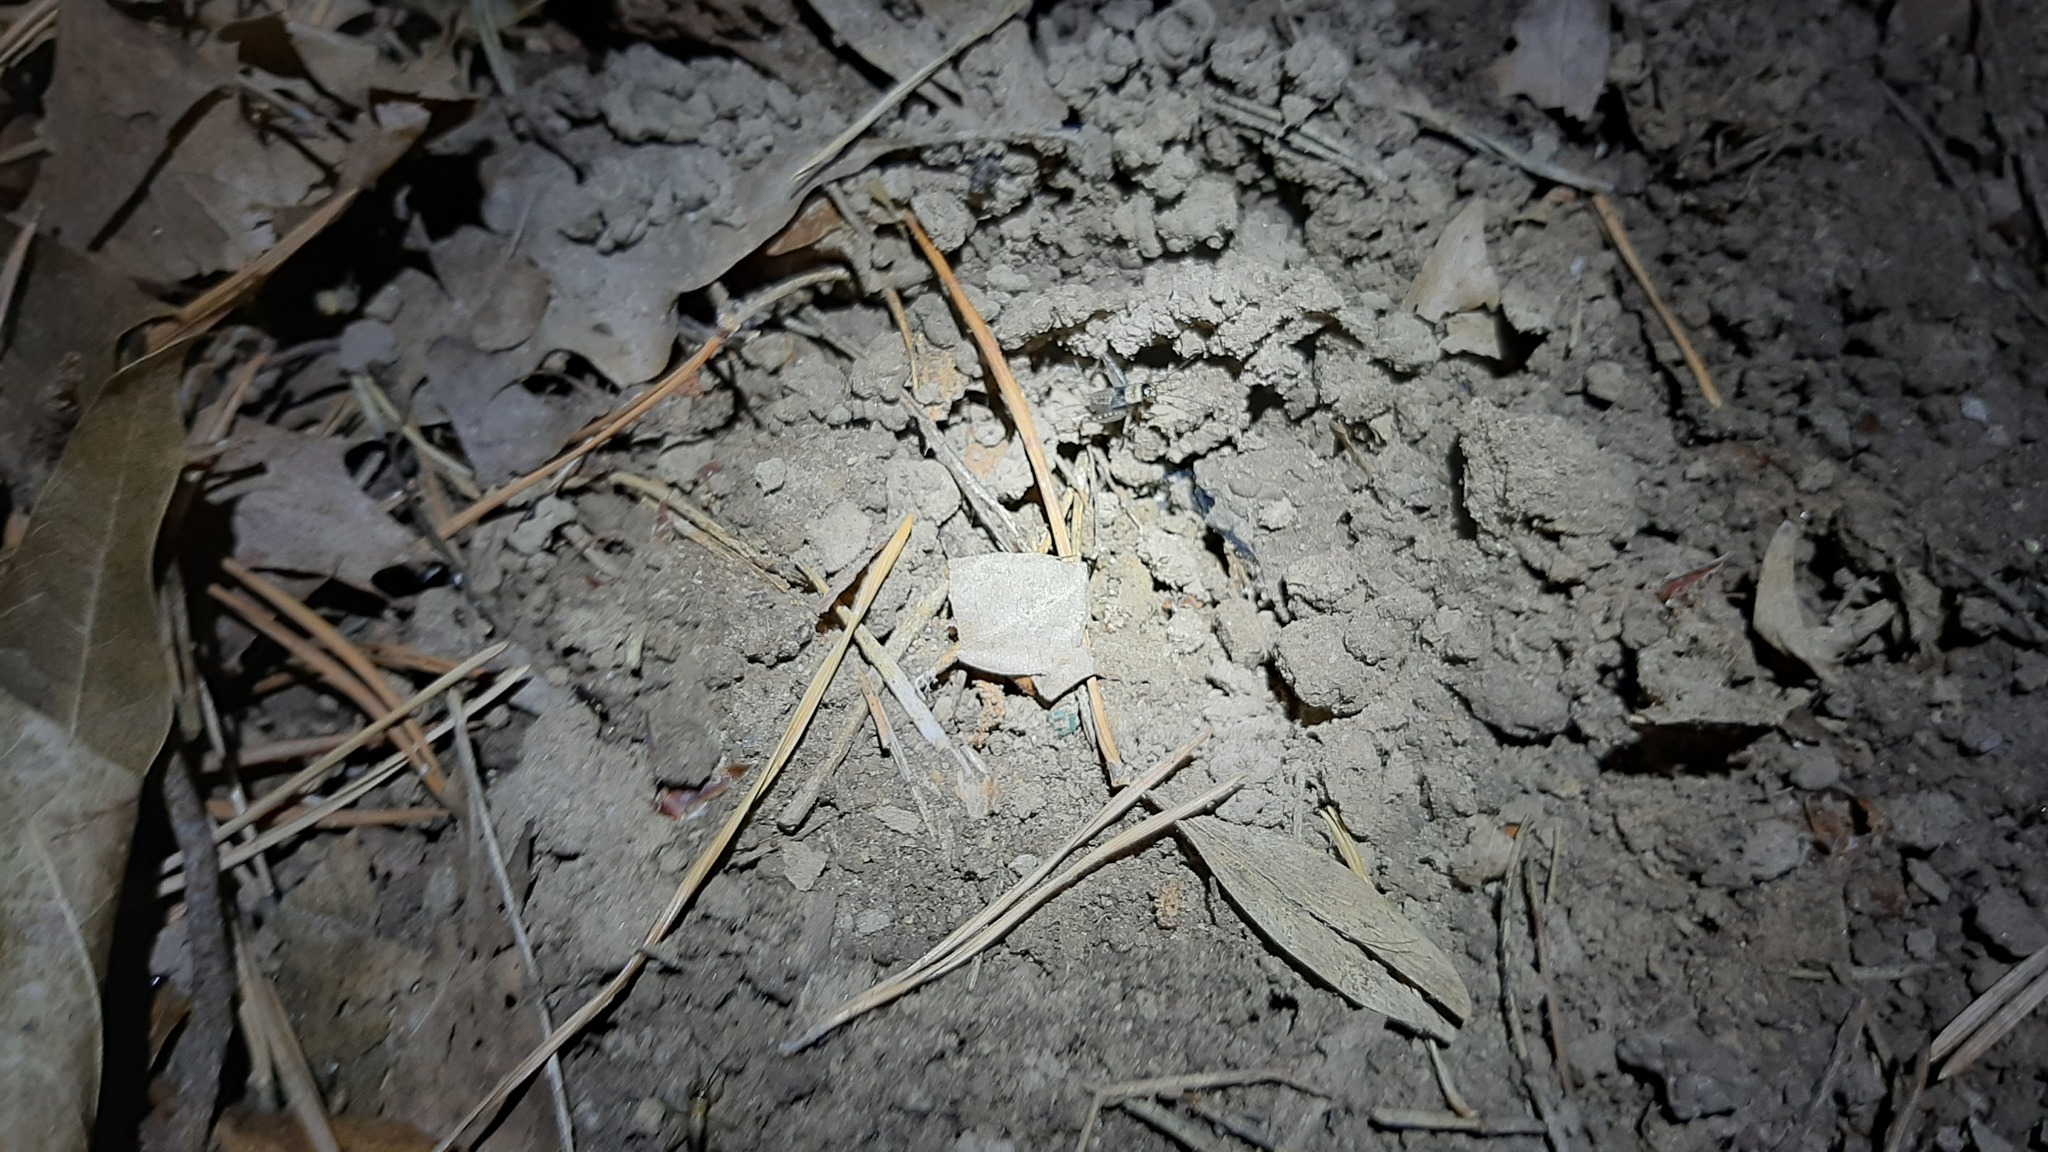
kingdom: Animalia
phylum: Arthropoda
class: Insecta
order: Orthoptera
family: Trigonidiidae
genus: Nemobius
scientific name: Nemobius sylvestris
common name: Wood-cricket
